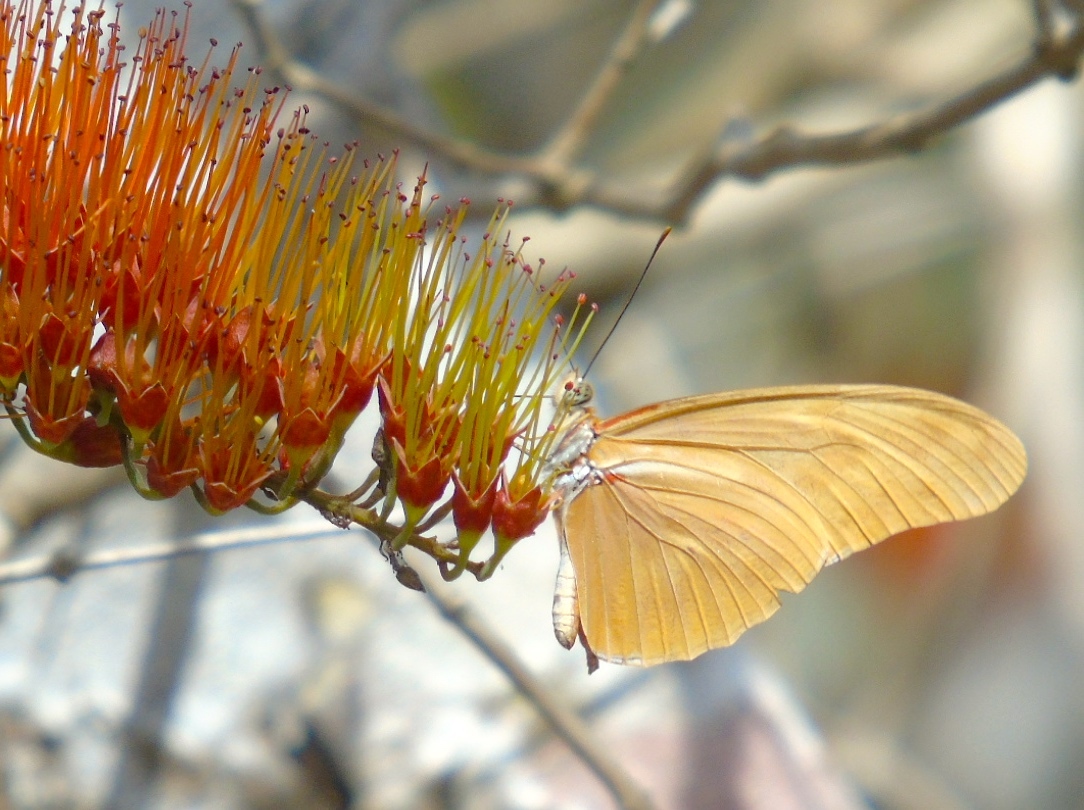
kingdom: Animalia
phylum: Arthropoda
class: Insecta
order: Lepidoptera
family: Nymphalidae
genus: Dryas
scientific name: Dryas iulia
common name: Flambeau
